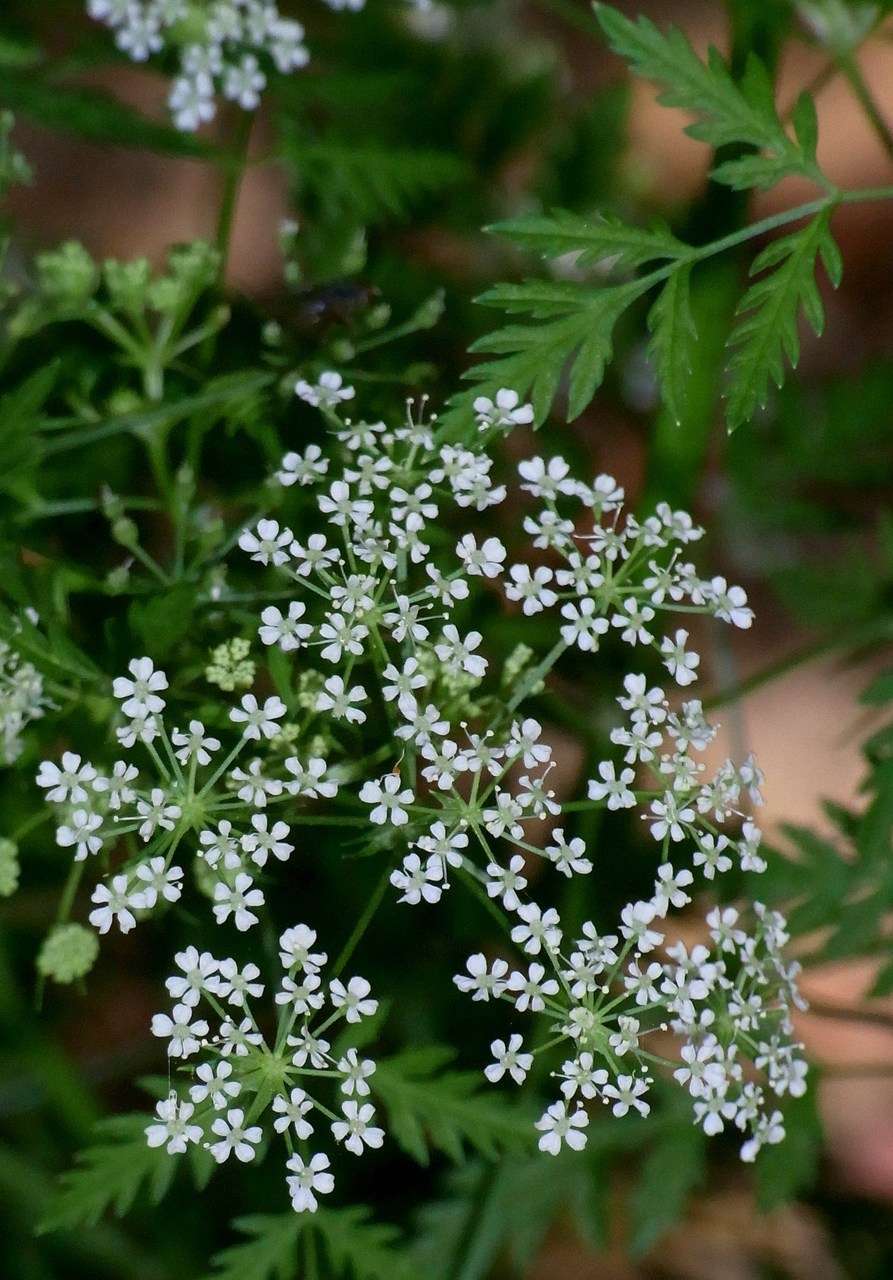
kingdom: Plantae
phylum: Tracheophyta
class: Magnoliopsida
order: Apiales
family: Apiaceae
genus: Conium
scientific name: Conium maculatum
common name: Hemlock
